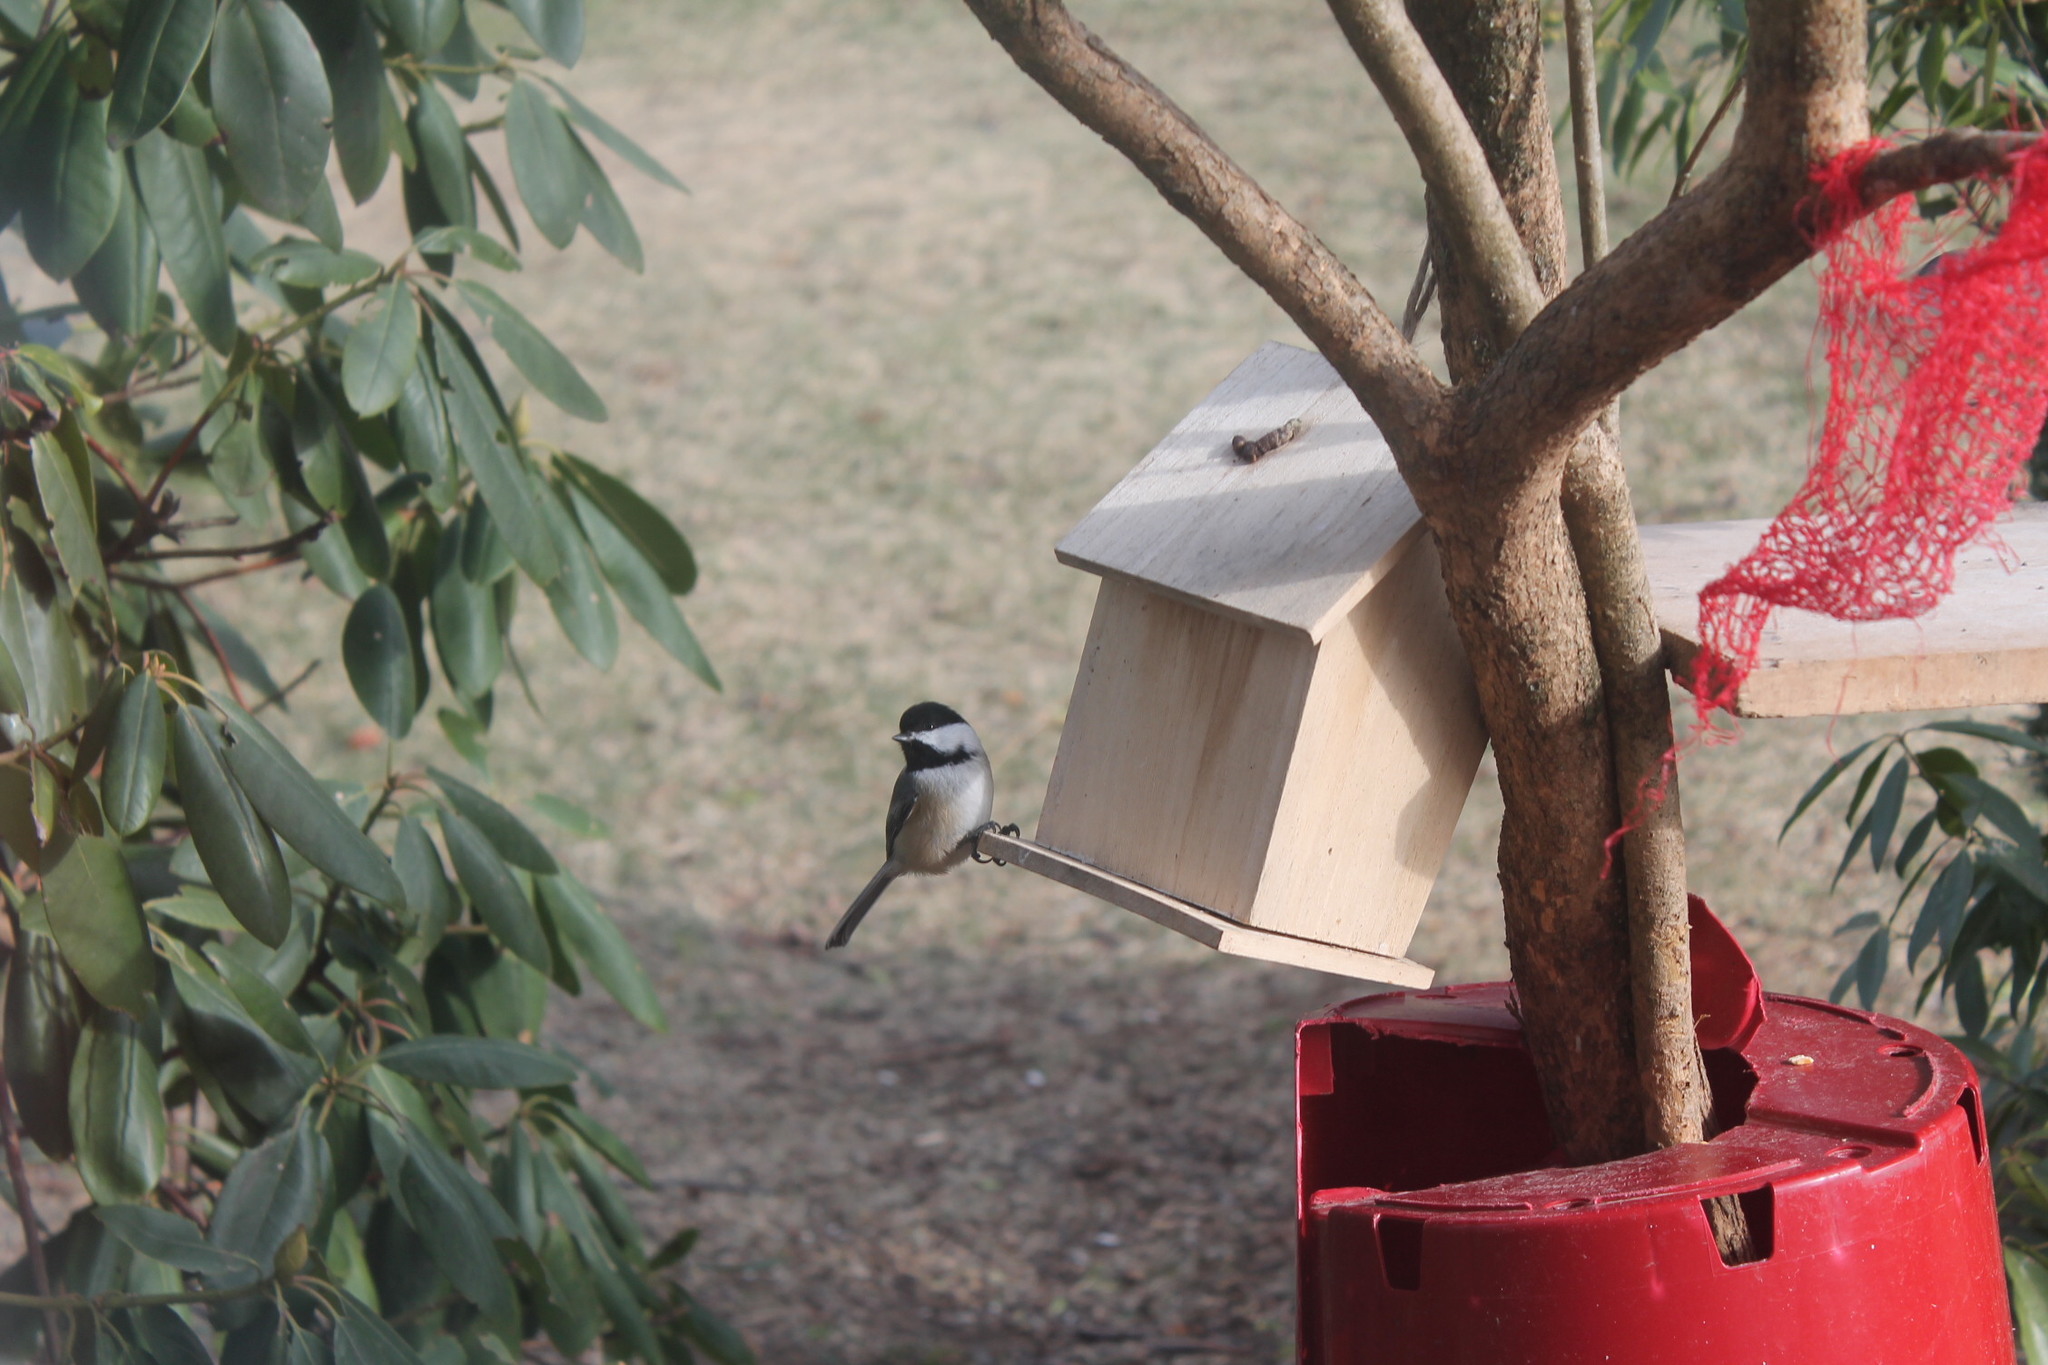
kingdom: Animalia
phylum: Chordata
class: Aves
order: Passeriformes
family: Paridae
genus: Poecile
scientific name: Poecile atricapillus
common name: Black-capped chickadee
